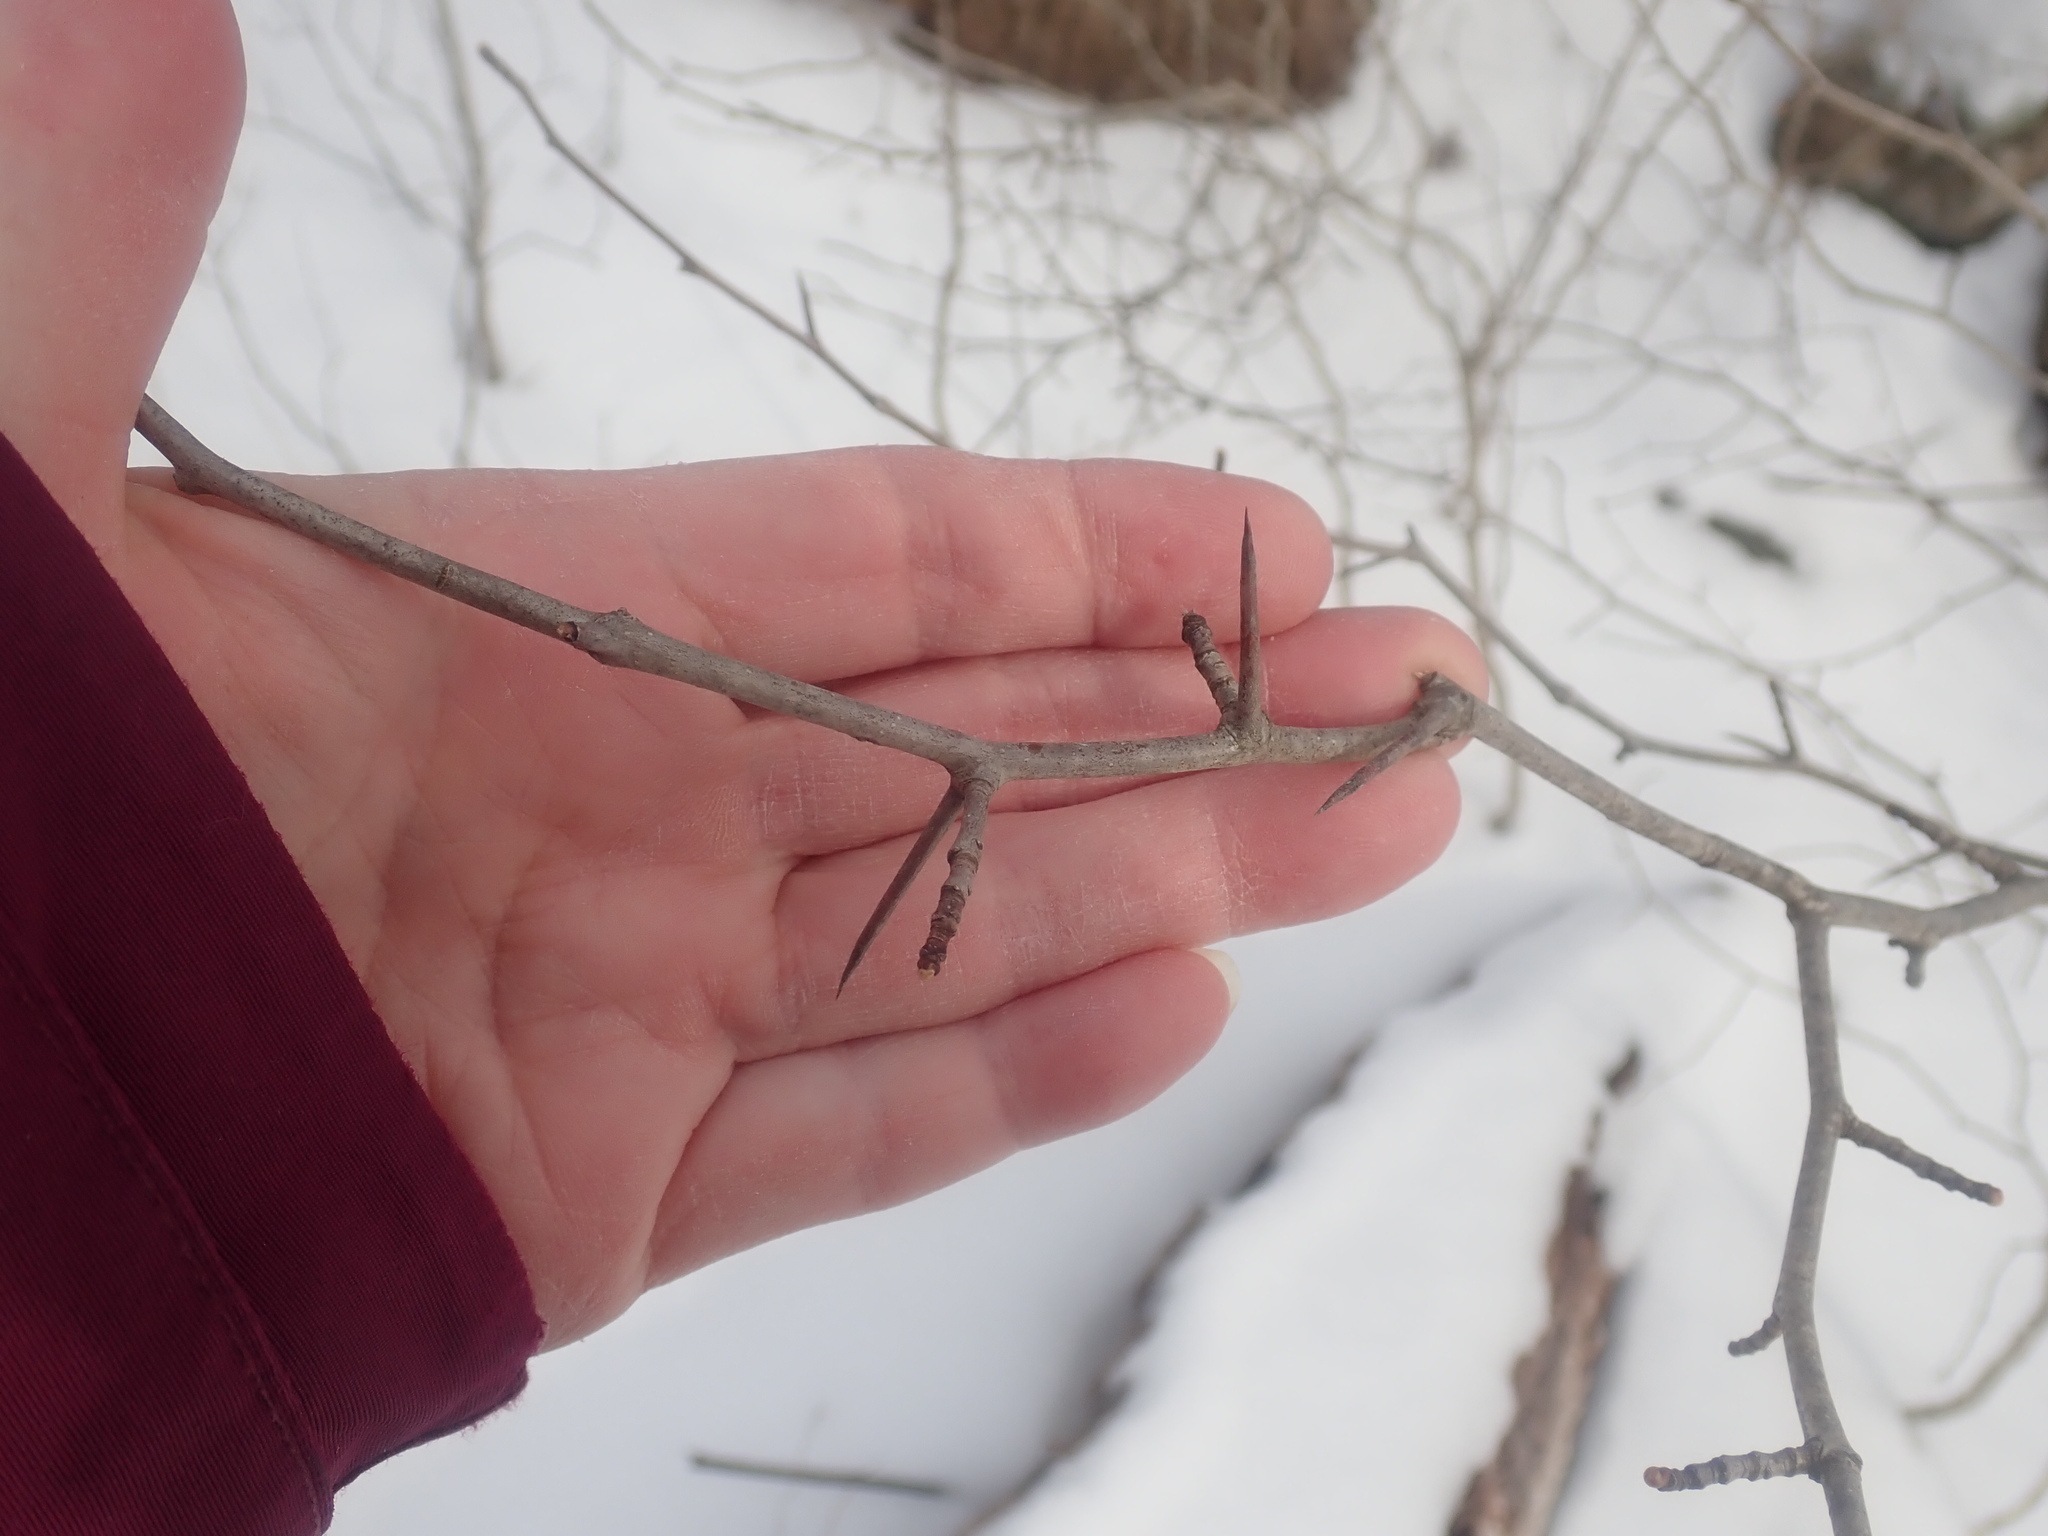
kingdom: Plantae
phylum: Tracheophyta
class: Magnoliopsida
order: Rosales
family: Rosaceae
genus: Crataegus
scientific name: Crataegus
